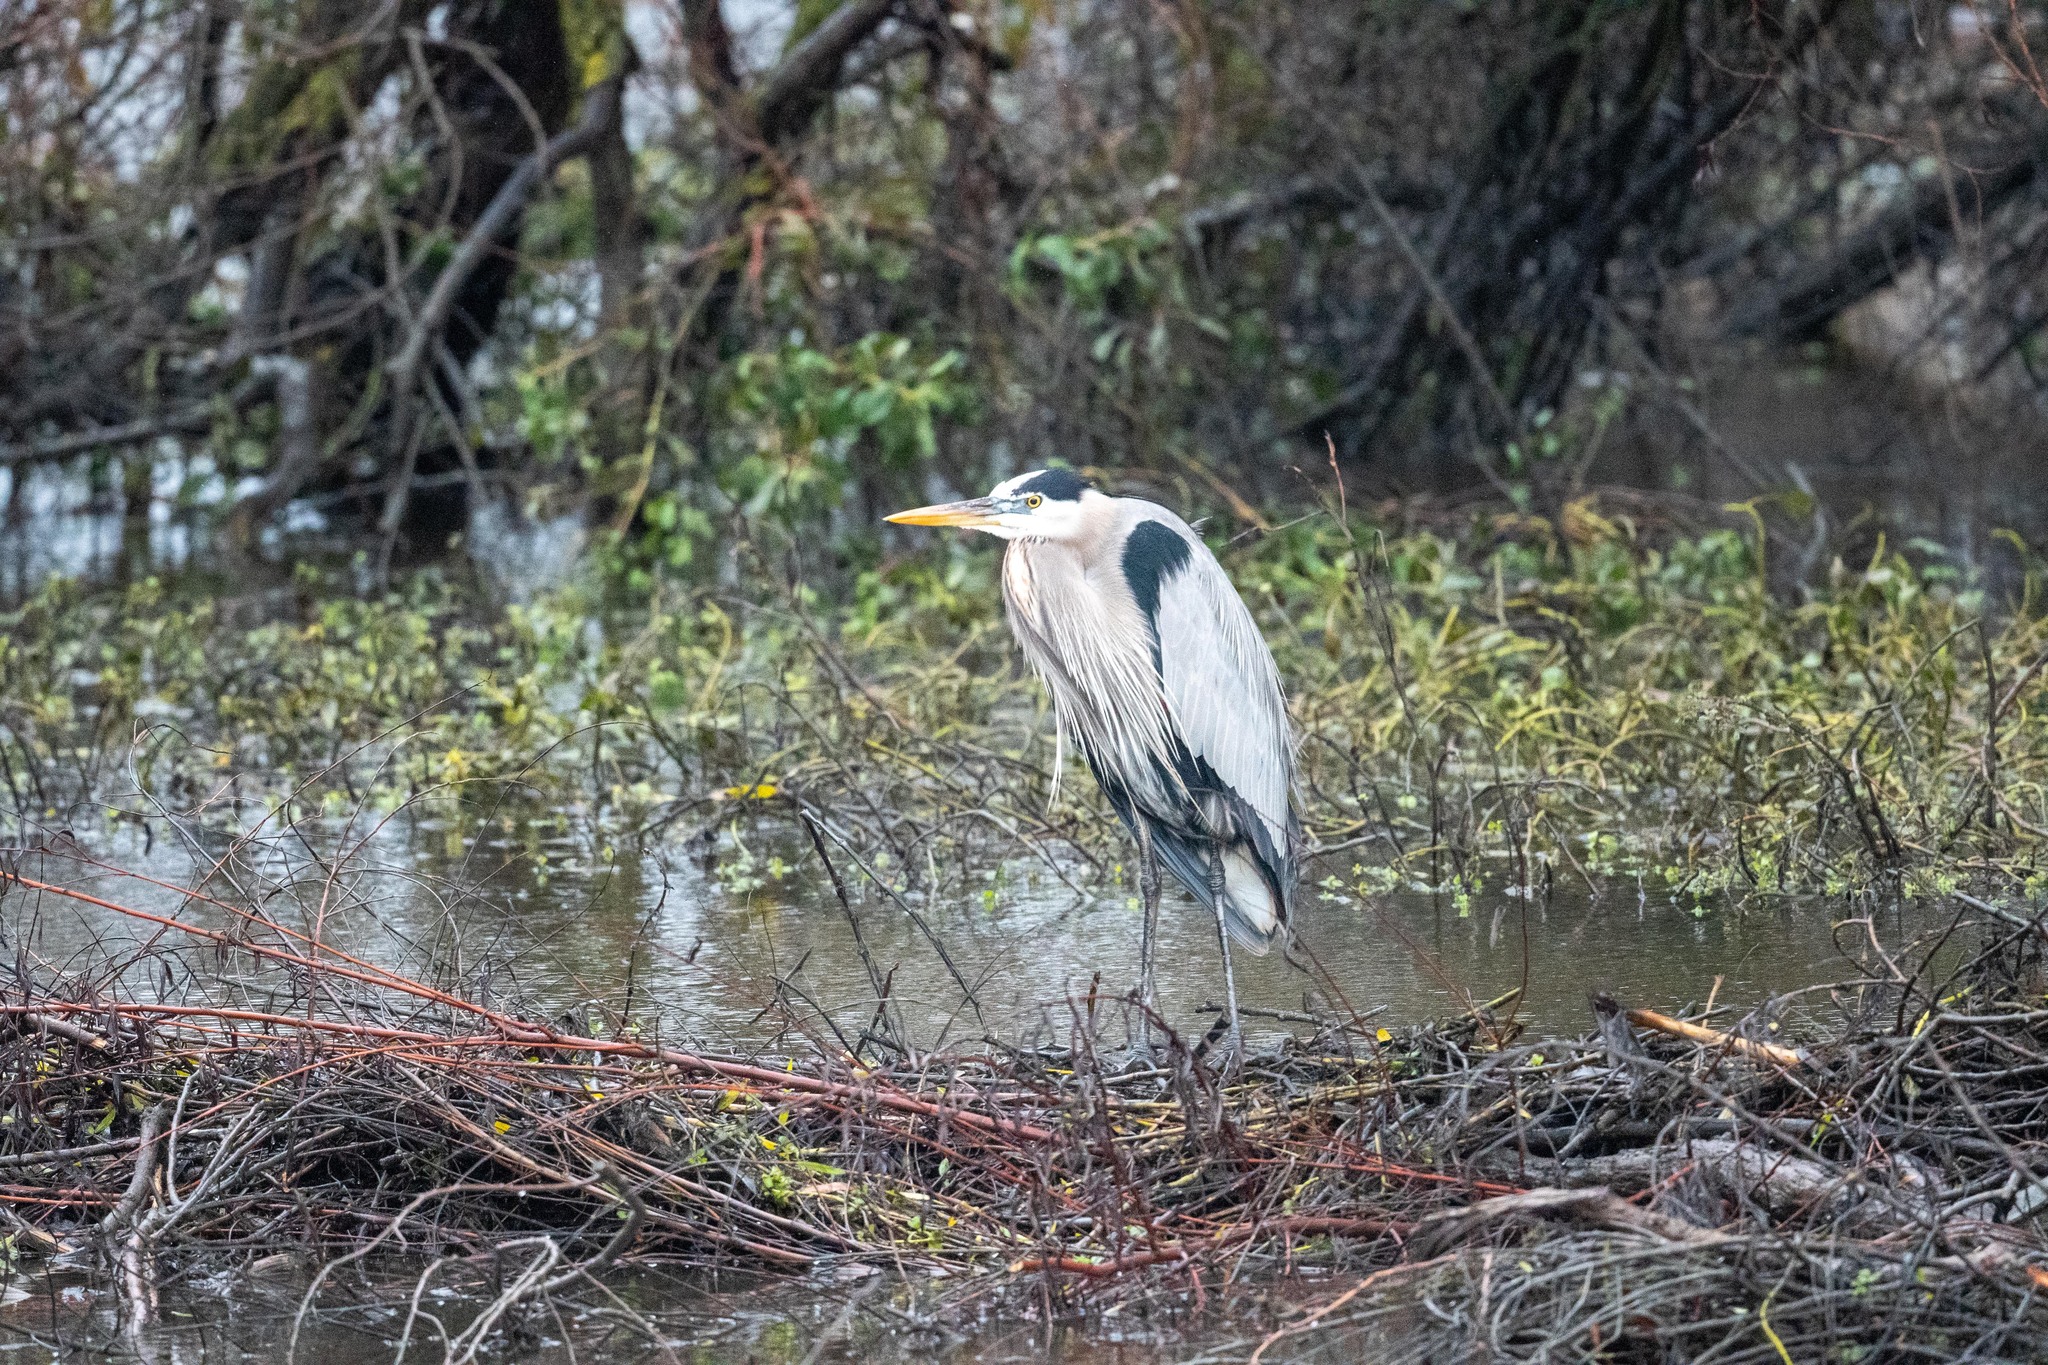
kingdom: Animalia
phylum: Chordata
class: Aves
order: Pelecaniformes
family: Ardeidae
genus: Ardea
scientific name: Ardea herodias
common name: Great blue heron
